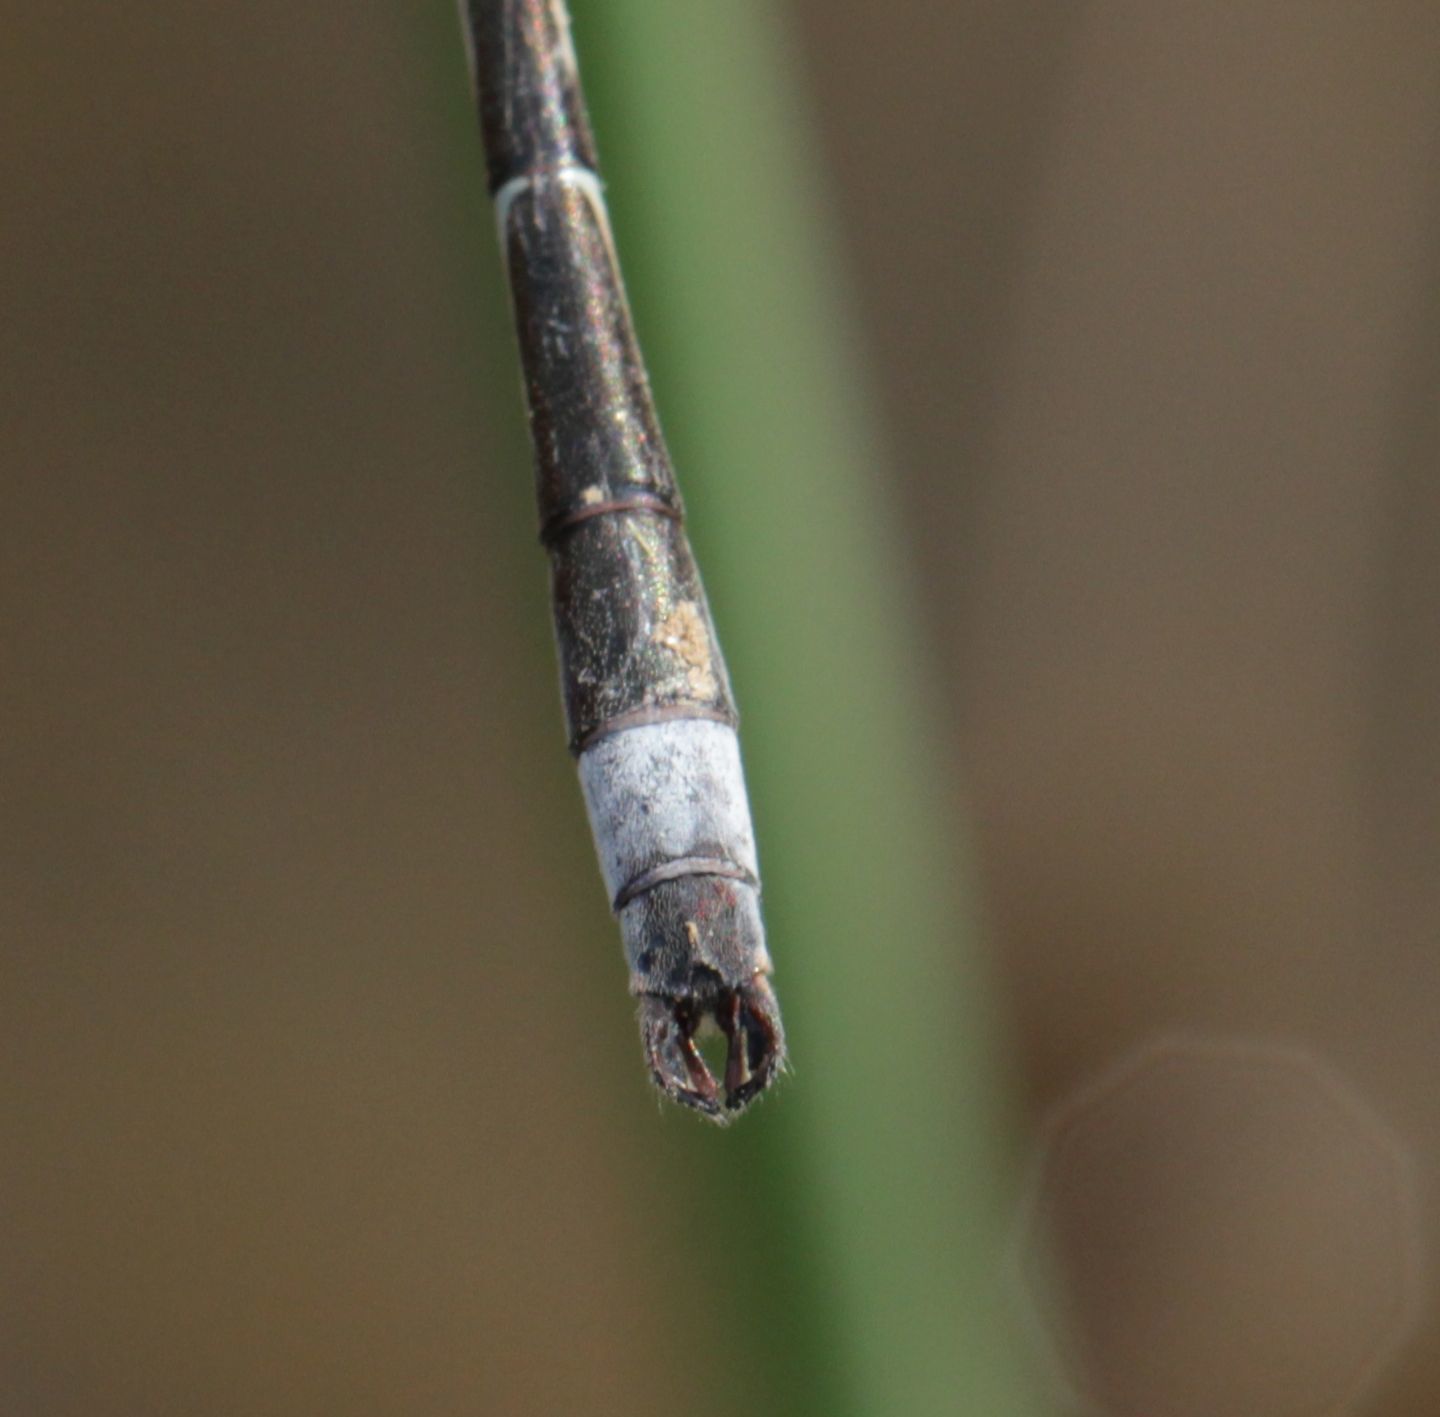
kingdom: Animalia
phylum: Arthropoda
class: Insecta
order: Odonata
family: Lestidae
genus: Lestes
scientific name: Lestes australis
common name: Southern spreadwing
